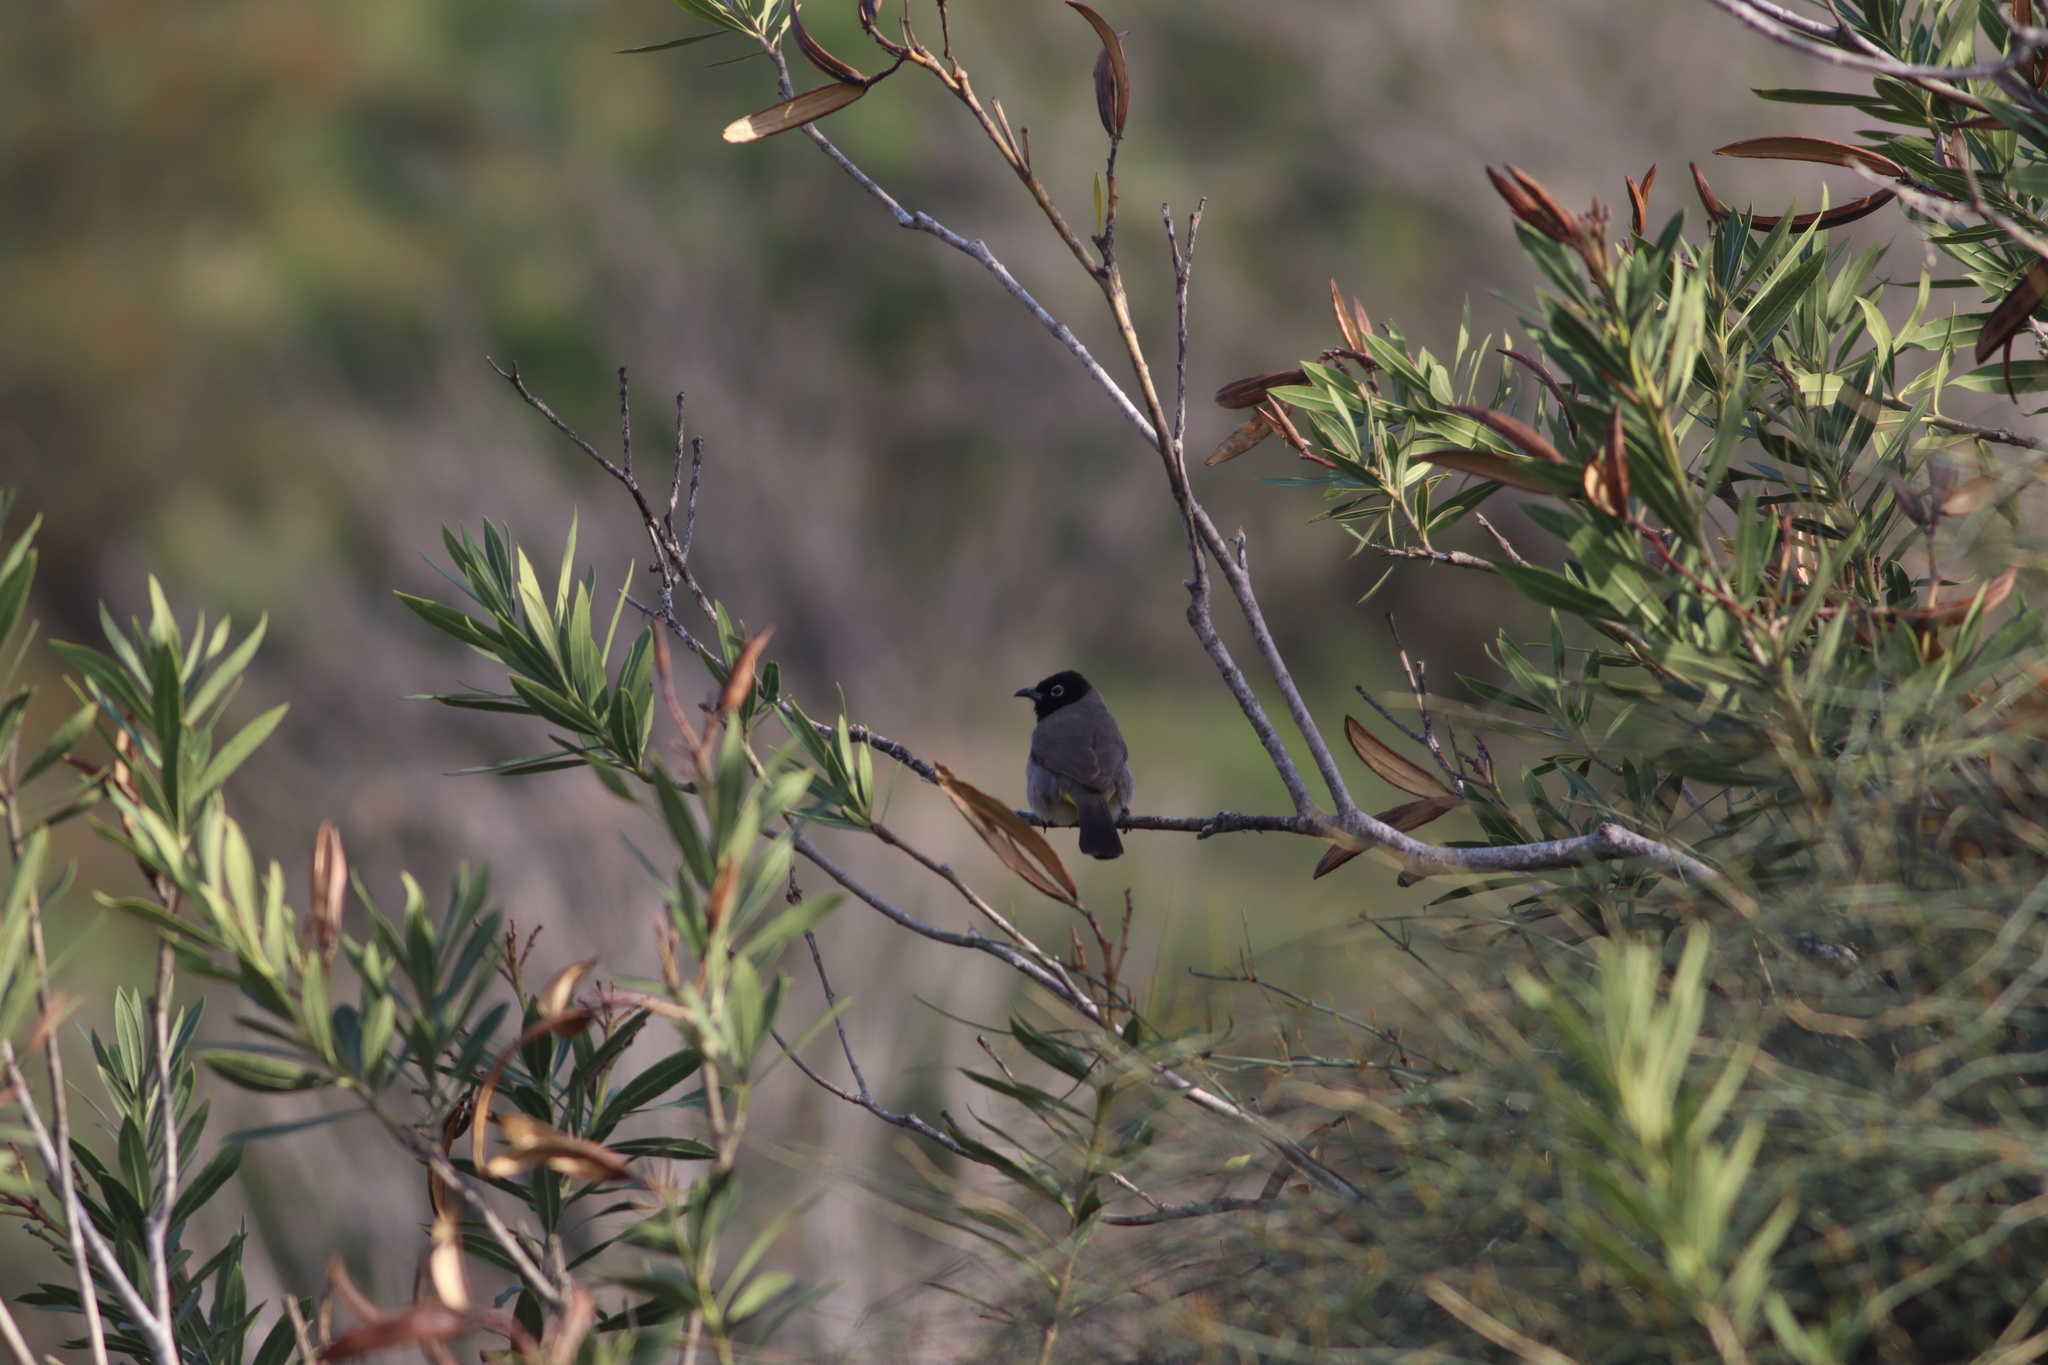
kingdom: Animalia
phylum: Chordata
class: Aves
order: Passeriformes
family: Pycnonotidae
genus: Pycnonotus
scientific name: Pycnonotus xanthopygos
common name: White-spectacled bulbul
